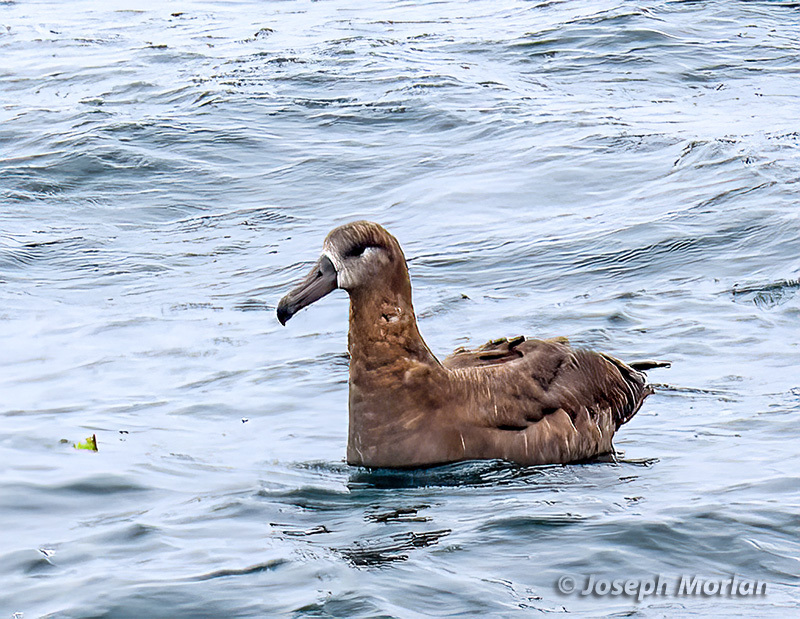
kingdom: Animalia
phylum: Chordata
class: Aves
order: Procellariiformes
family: Diomedeidae
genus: Phoebastria
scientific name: Phoebastria nigripes
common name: Black-footed albatross
